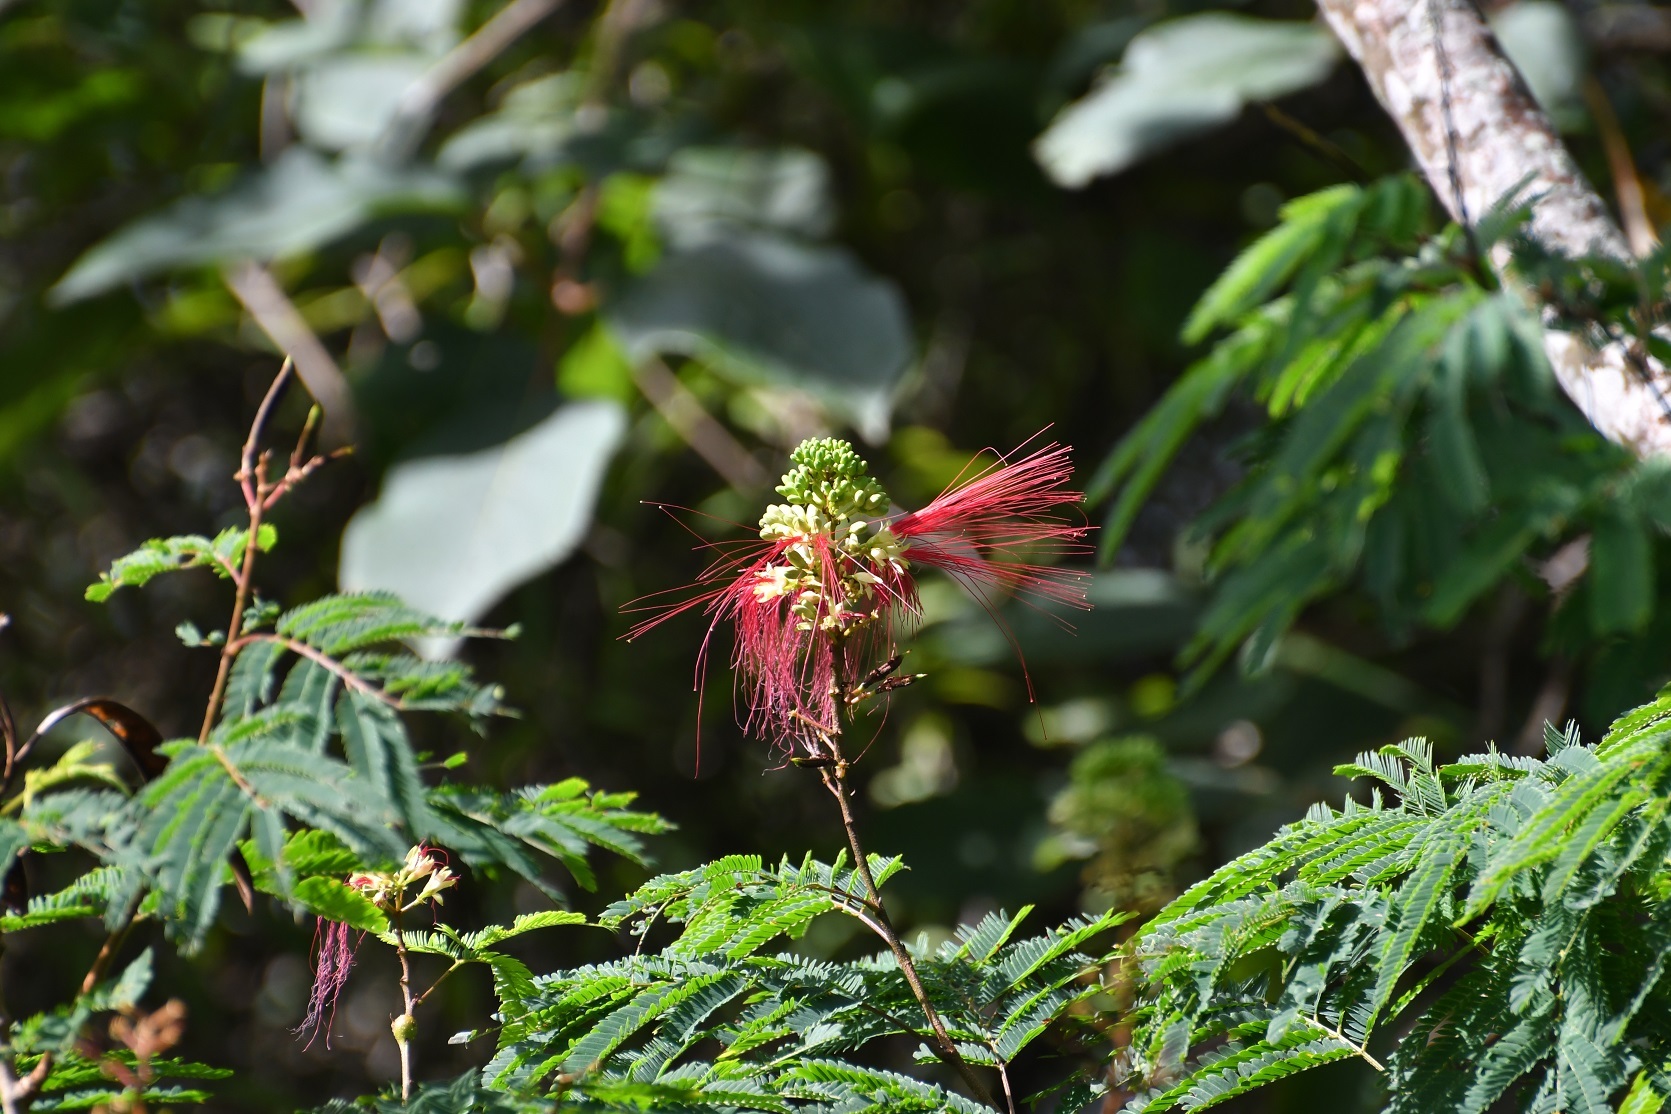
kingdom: Plantae
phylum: Tracheophyta
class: Magnoliopsida
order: Fabales
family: Fabaceae
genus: Calliandra
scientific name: Calliandra houstoniana
